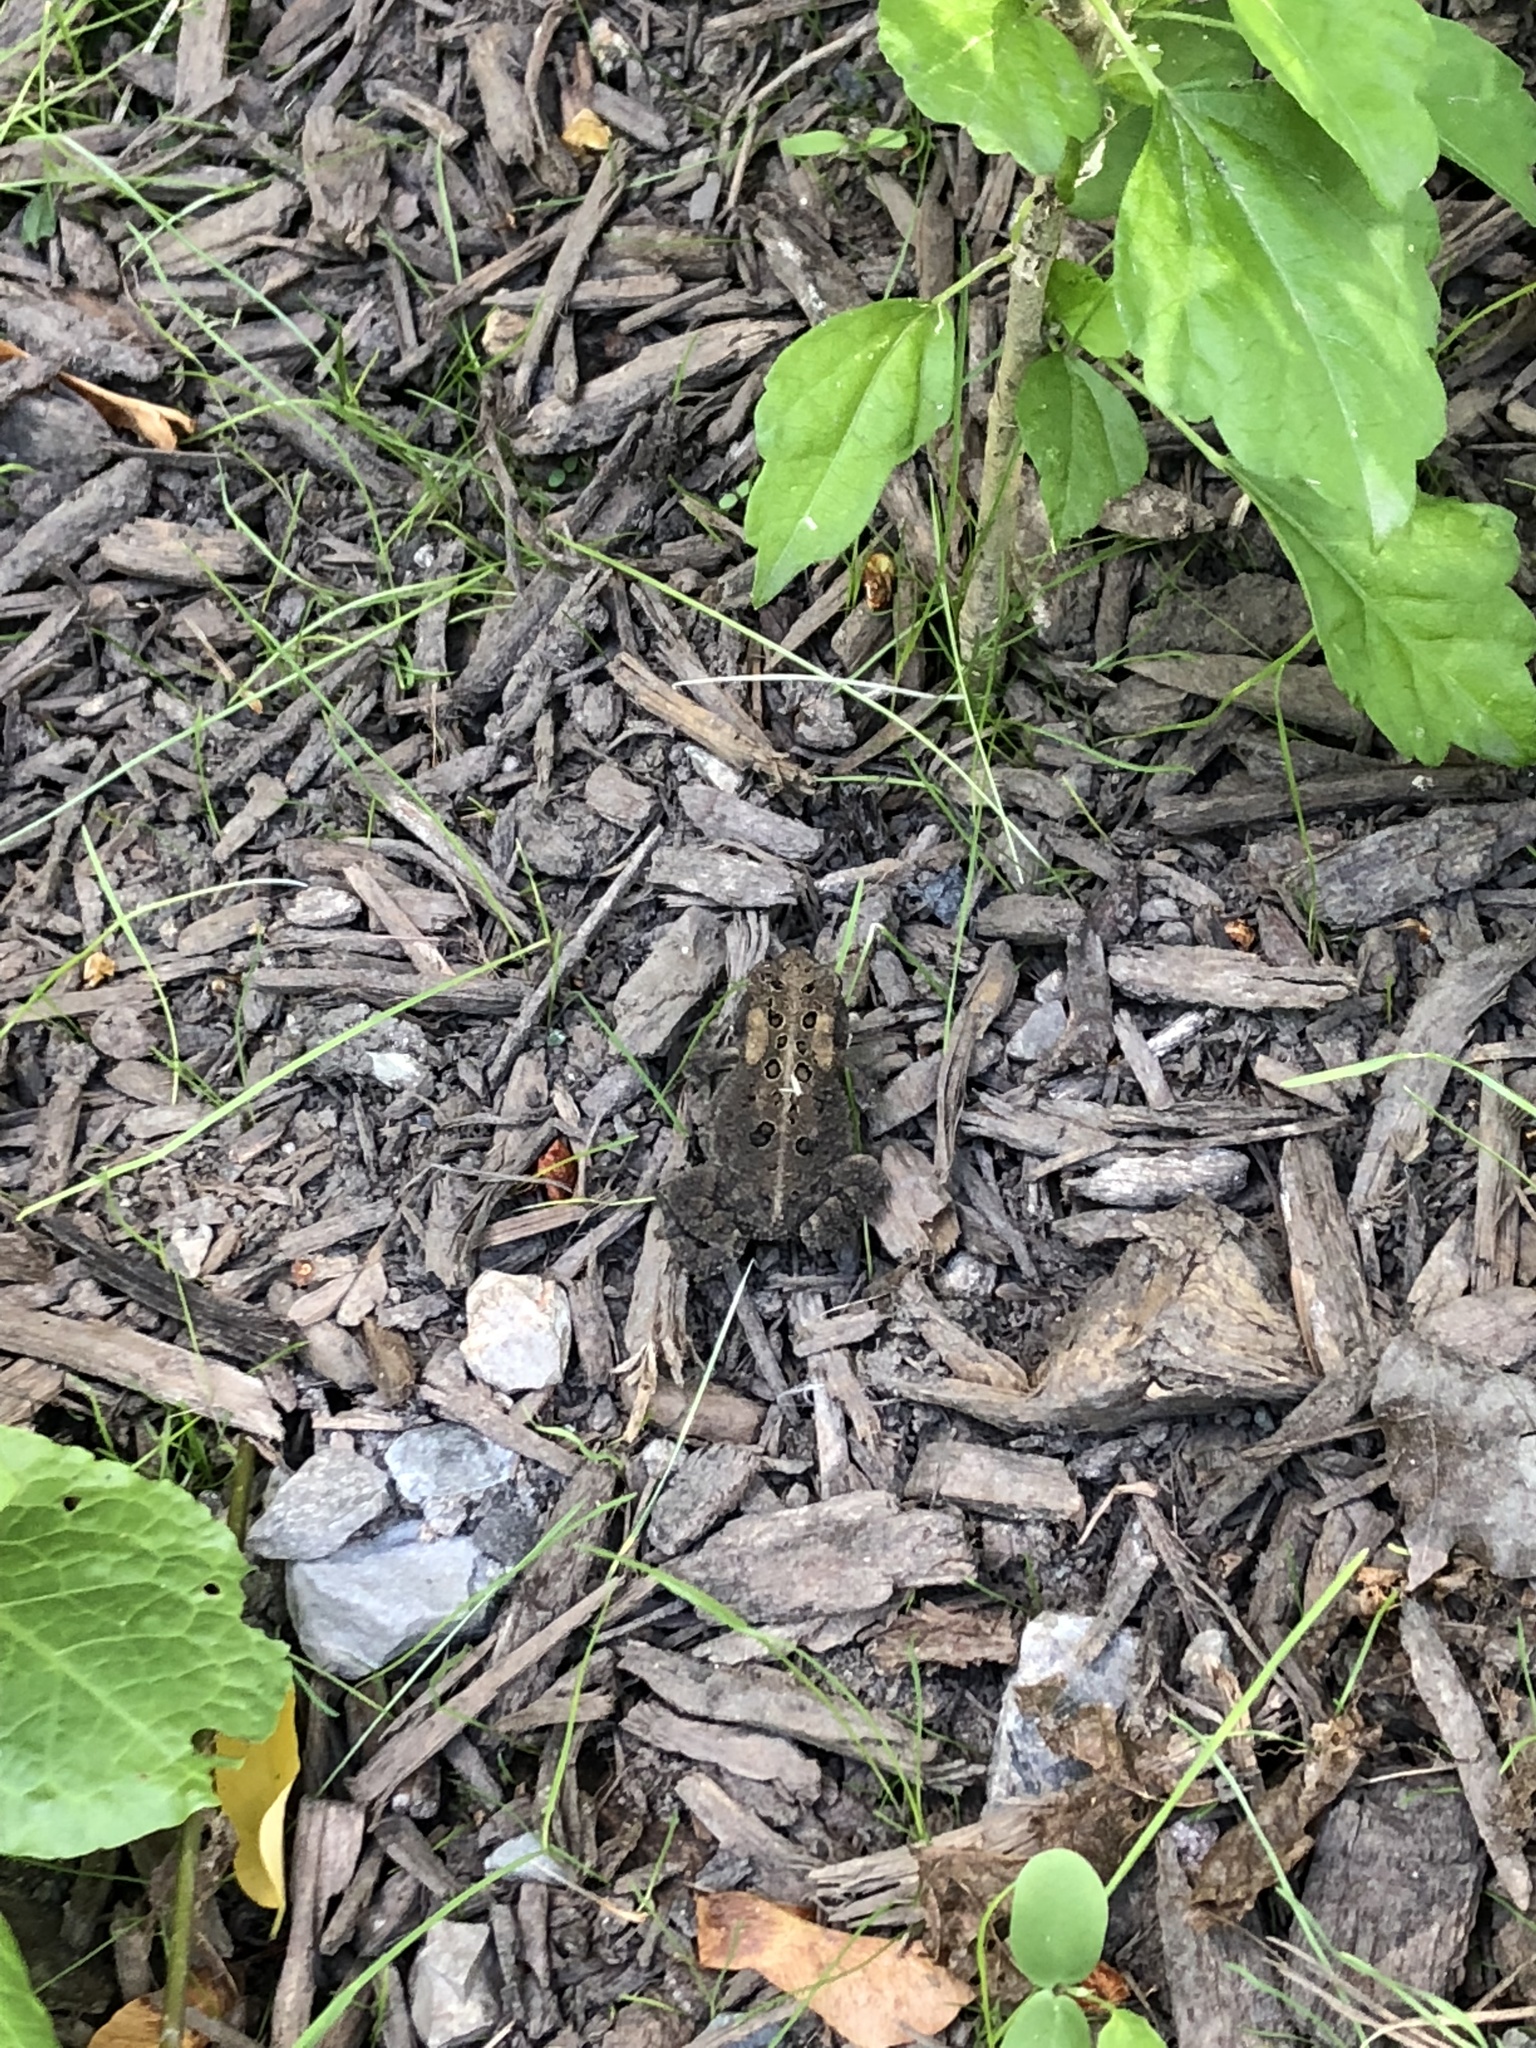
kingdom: Animalia
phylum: Chordata
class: Amphibia
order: Anura
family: Bufonidae
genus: Anaxyrus
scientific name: Anaxyrus americanus
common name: American toad
